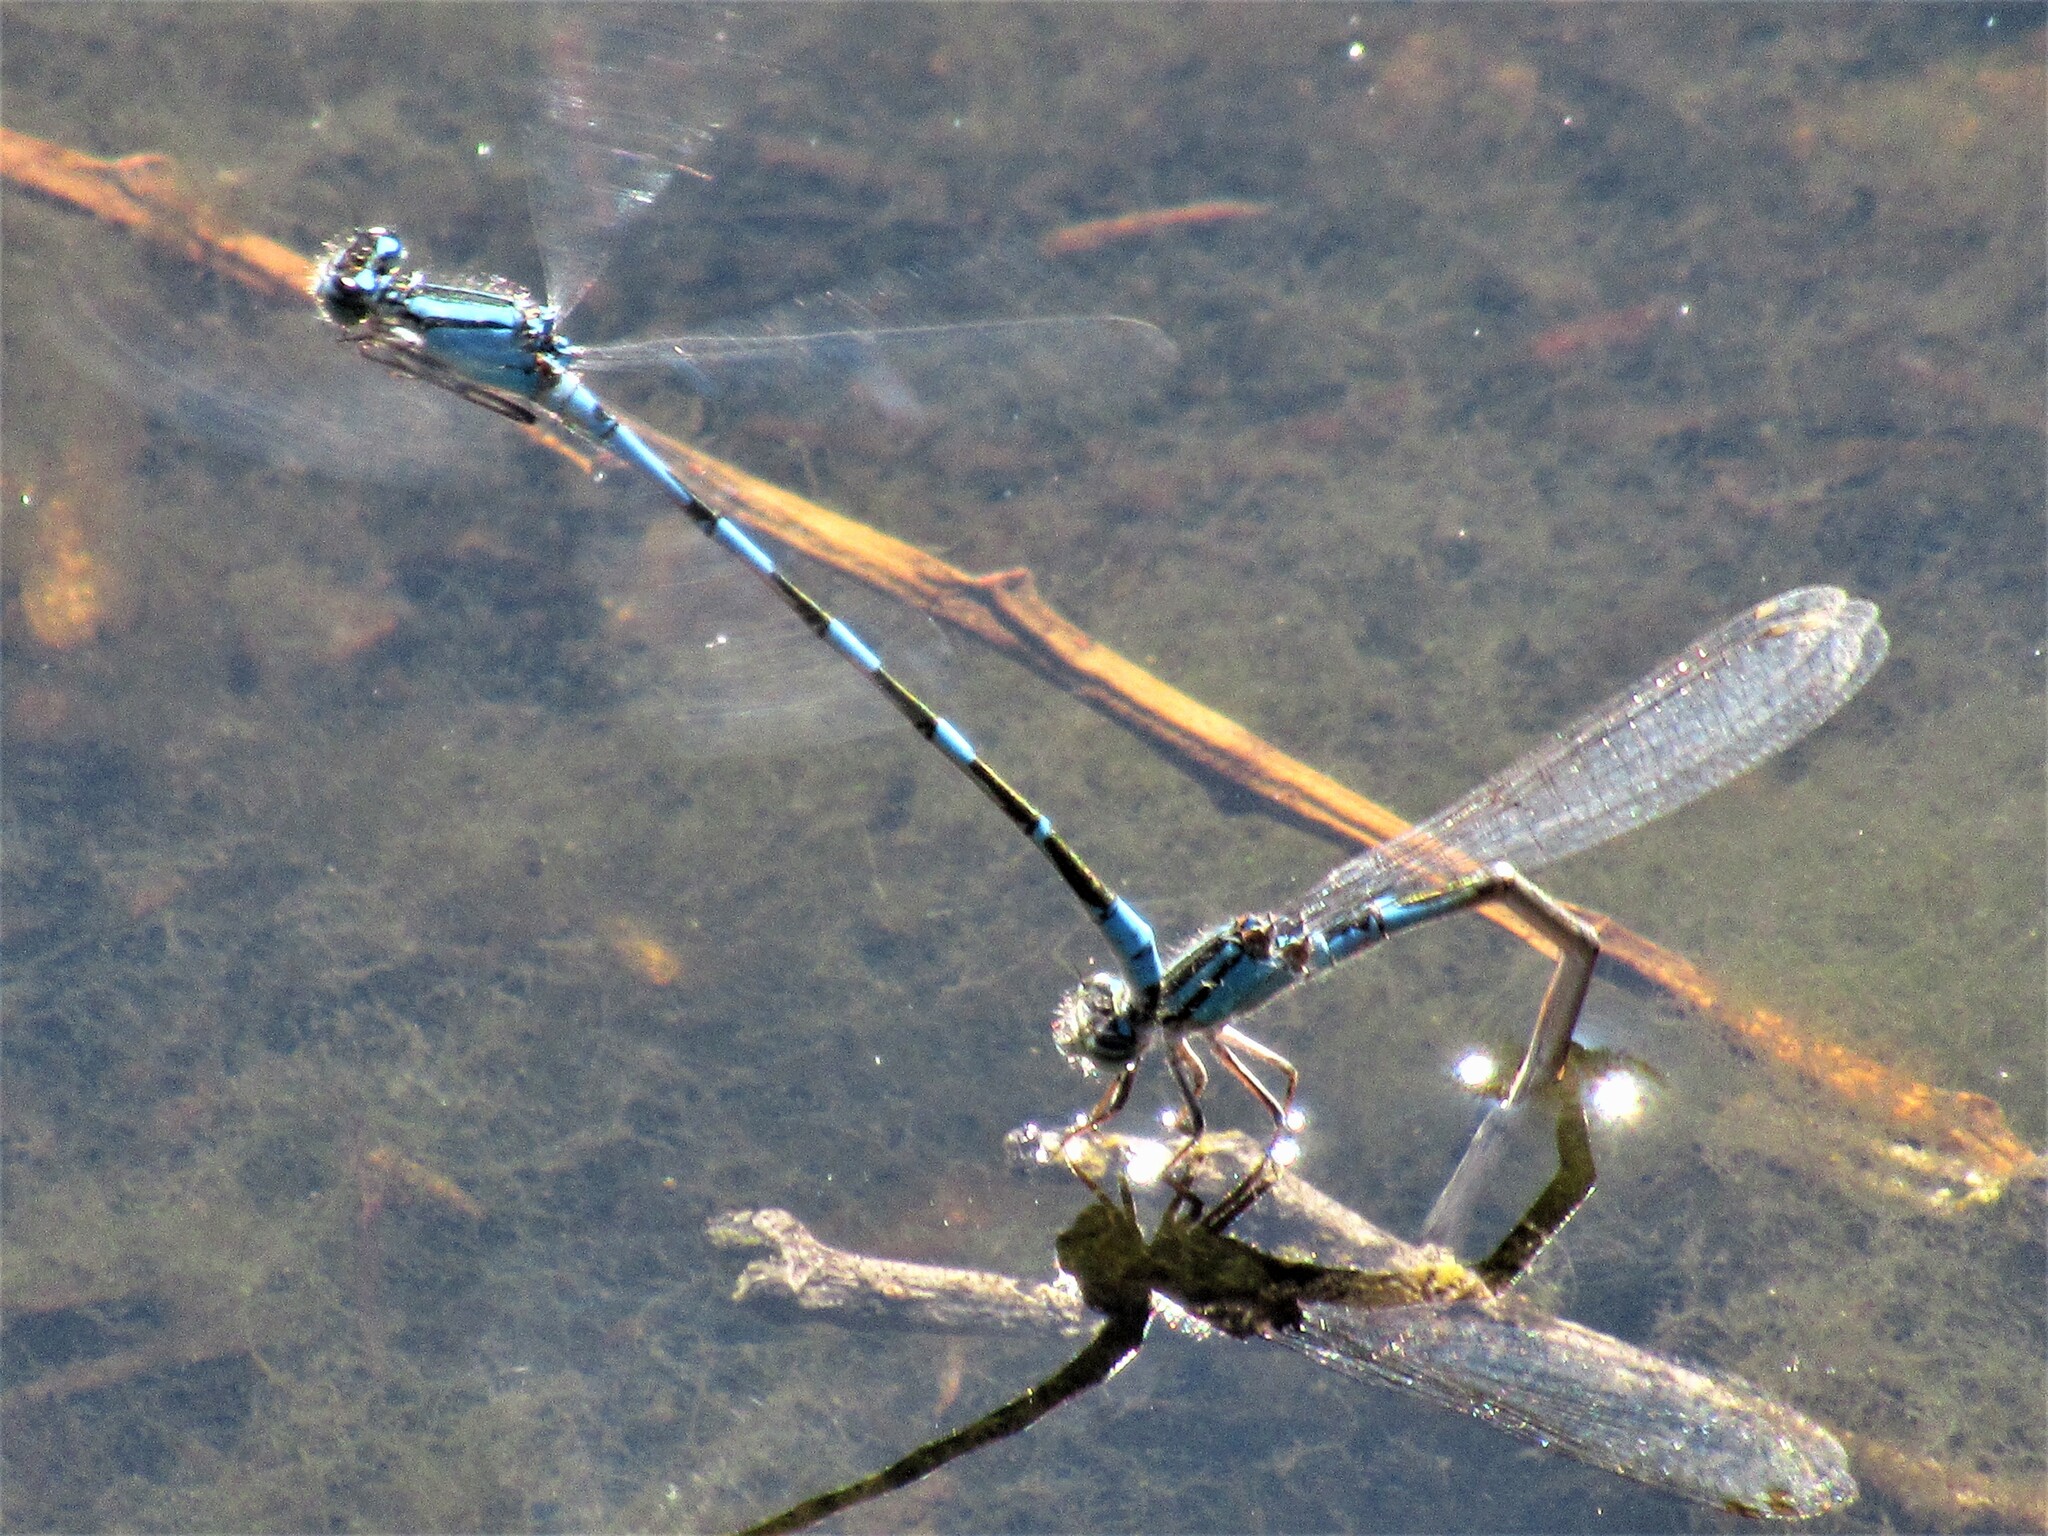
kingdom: Animalia
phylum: Arthropoda
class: Insecta
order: Odonata
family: Coenagrionidae
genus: Enallagma
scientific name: Enallagma carunculatum
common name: Tule bluet
